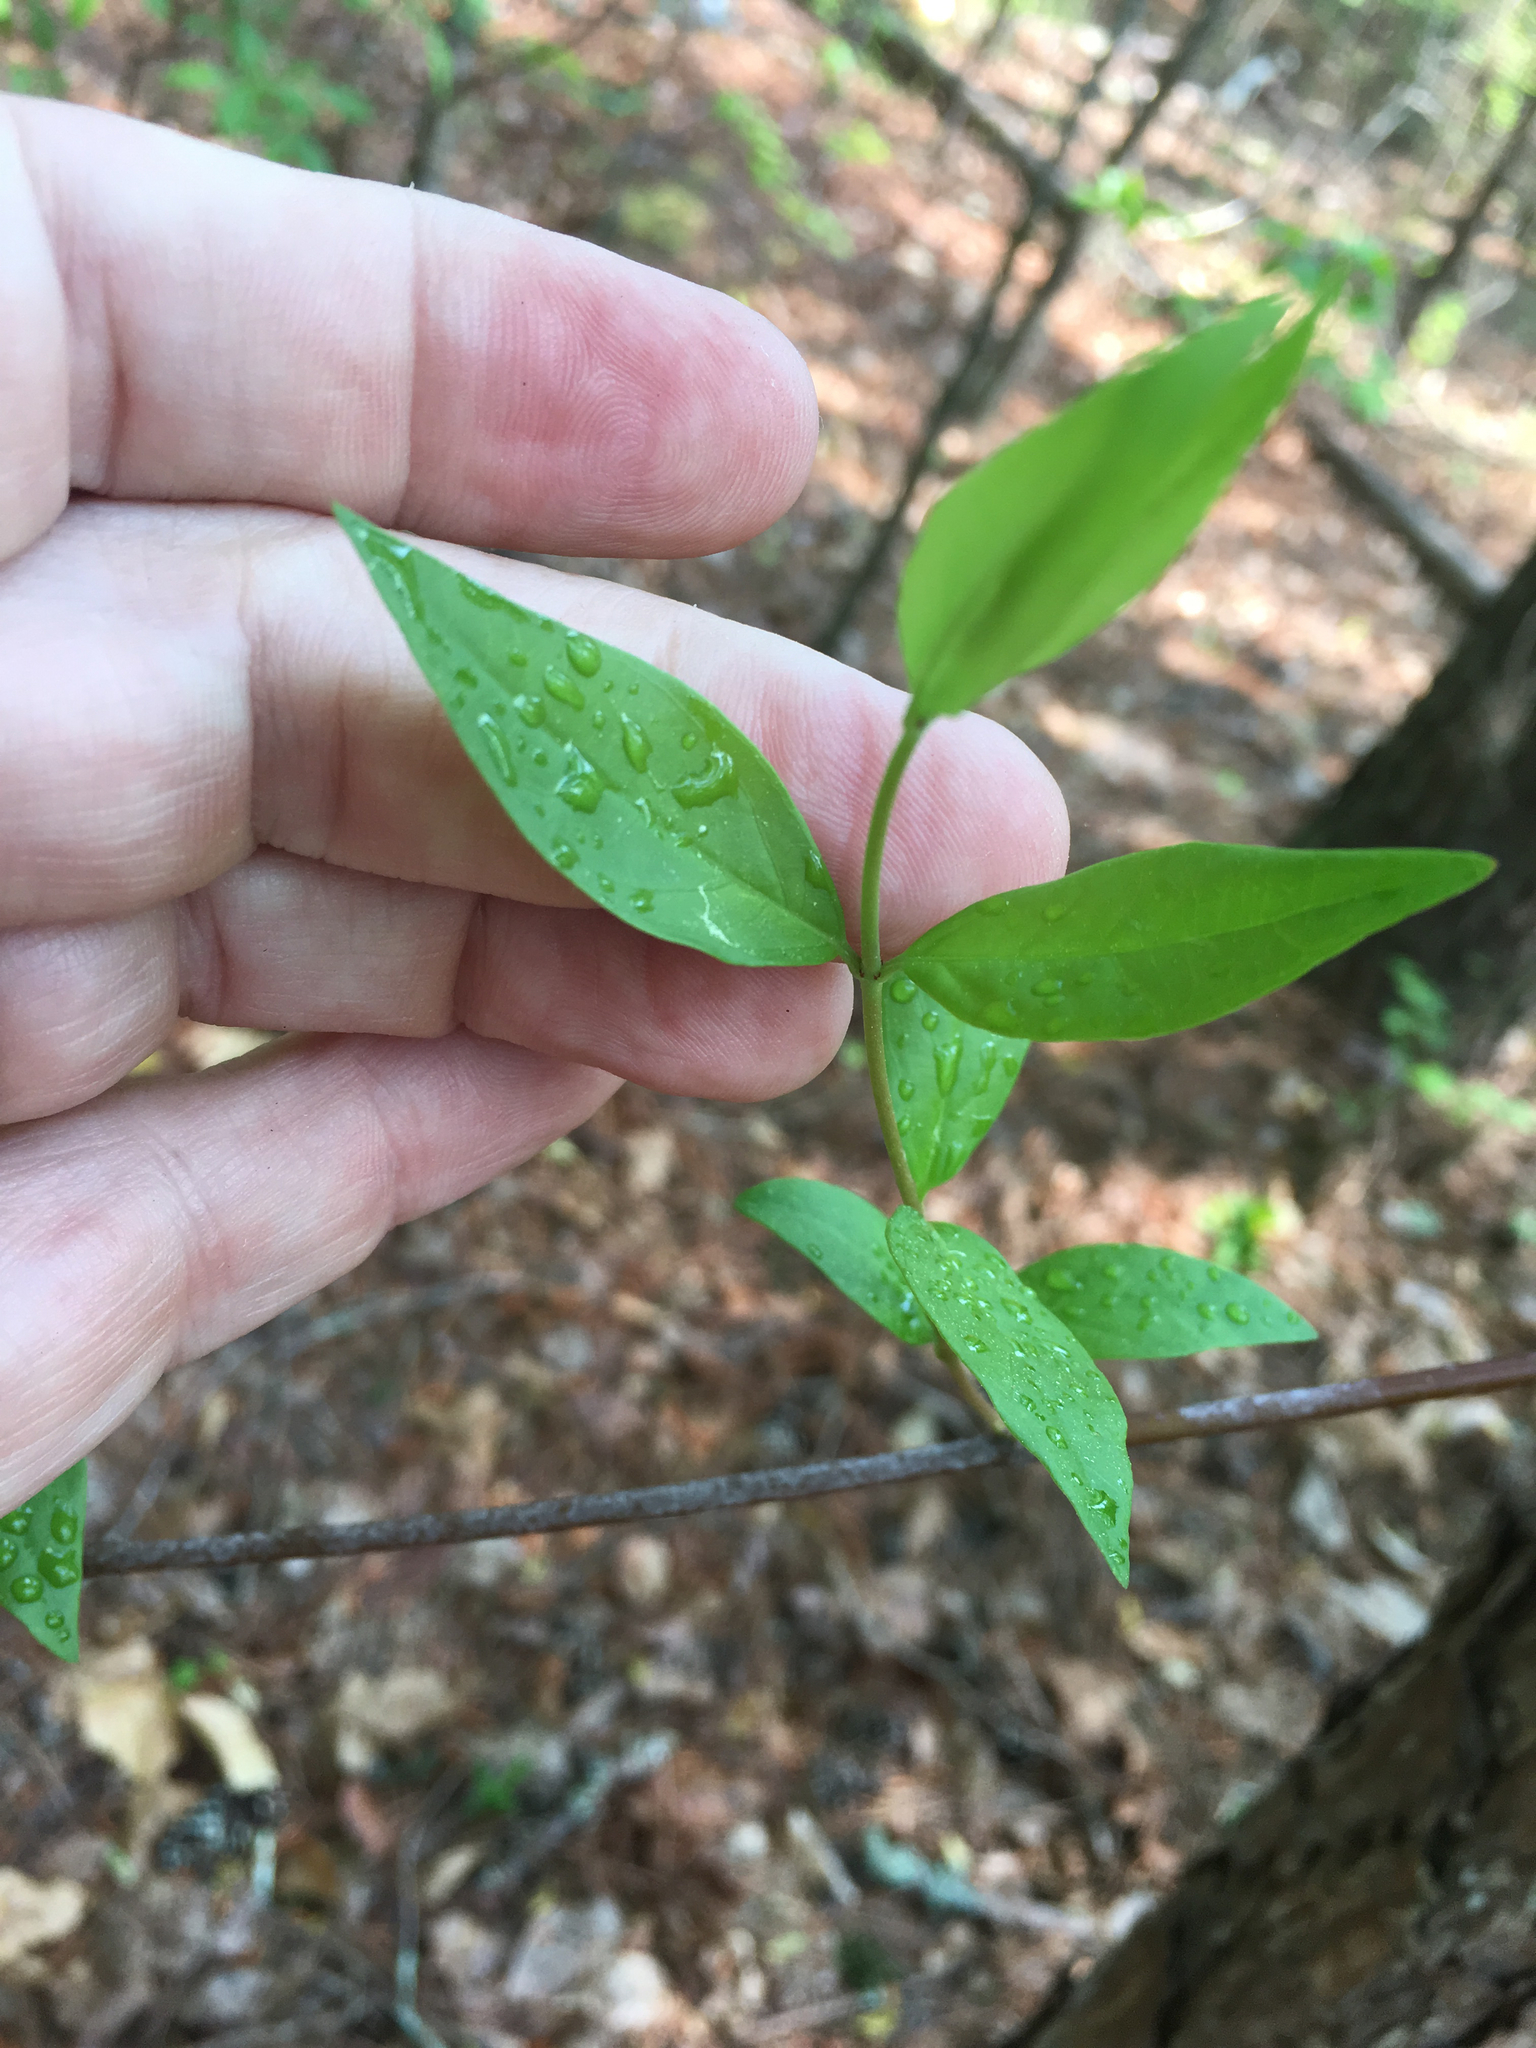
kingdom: Plantae
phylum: Tracheophyta
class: Magnoliopsida
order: Gentianales
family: Gelsemiaceae
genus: Gelsemium
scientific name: Gelsemium sempervirens
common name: Carolina-jasmine
